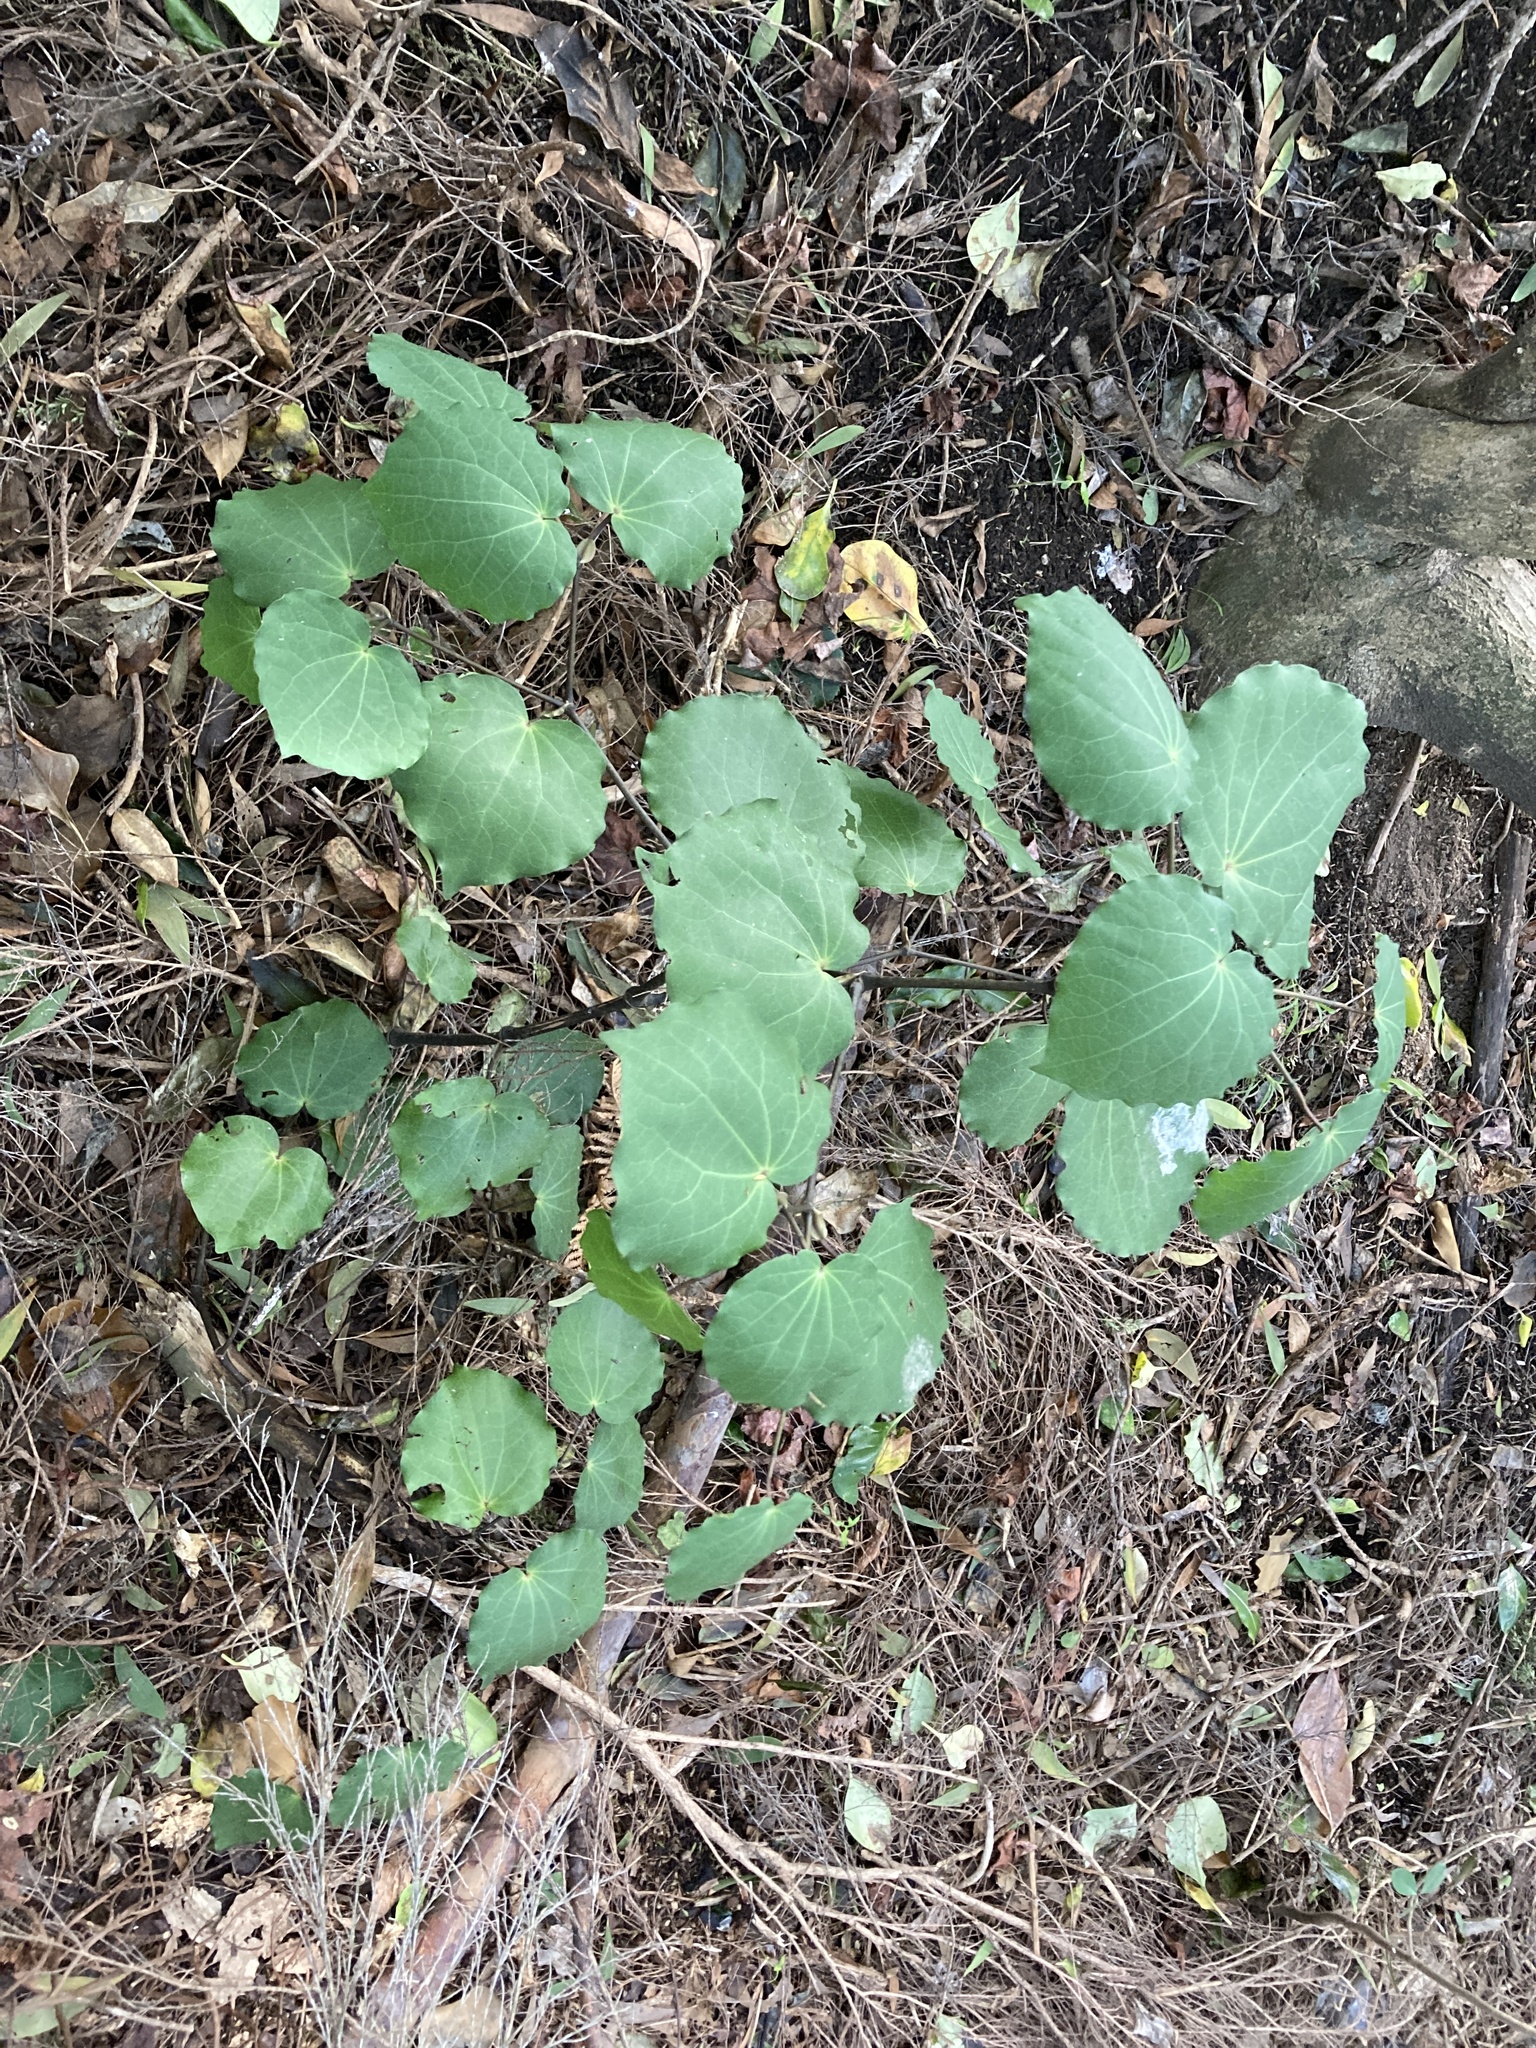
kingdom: Plantae
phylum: Tracheophyta
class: Magnoliopsida
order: Piperales
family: Piperaceae
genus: Macropiper
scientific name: Macropiper excelsum
